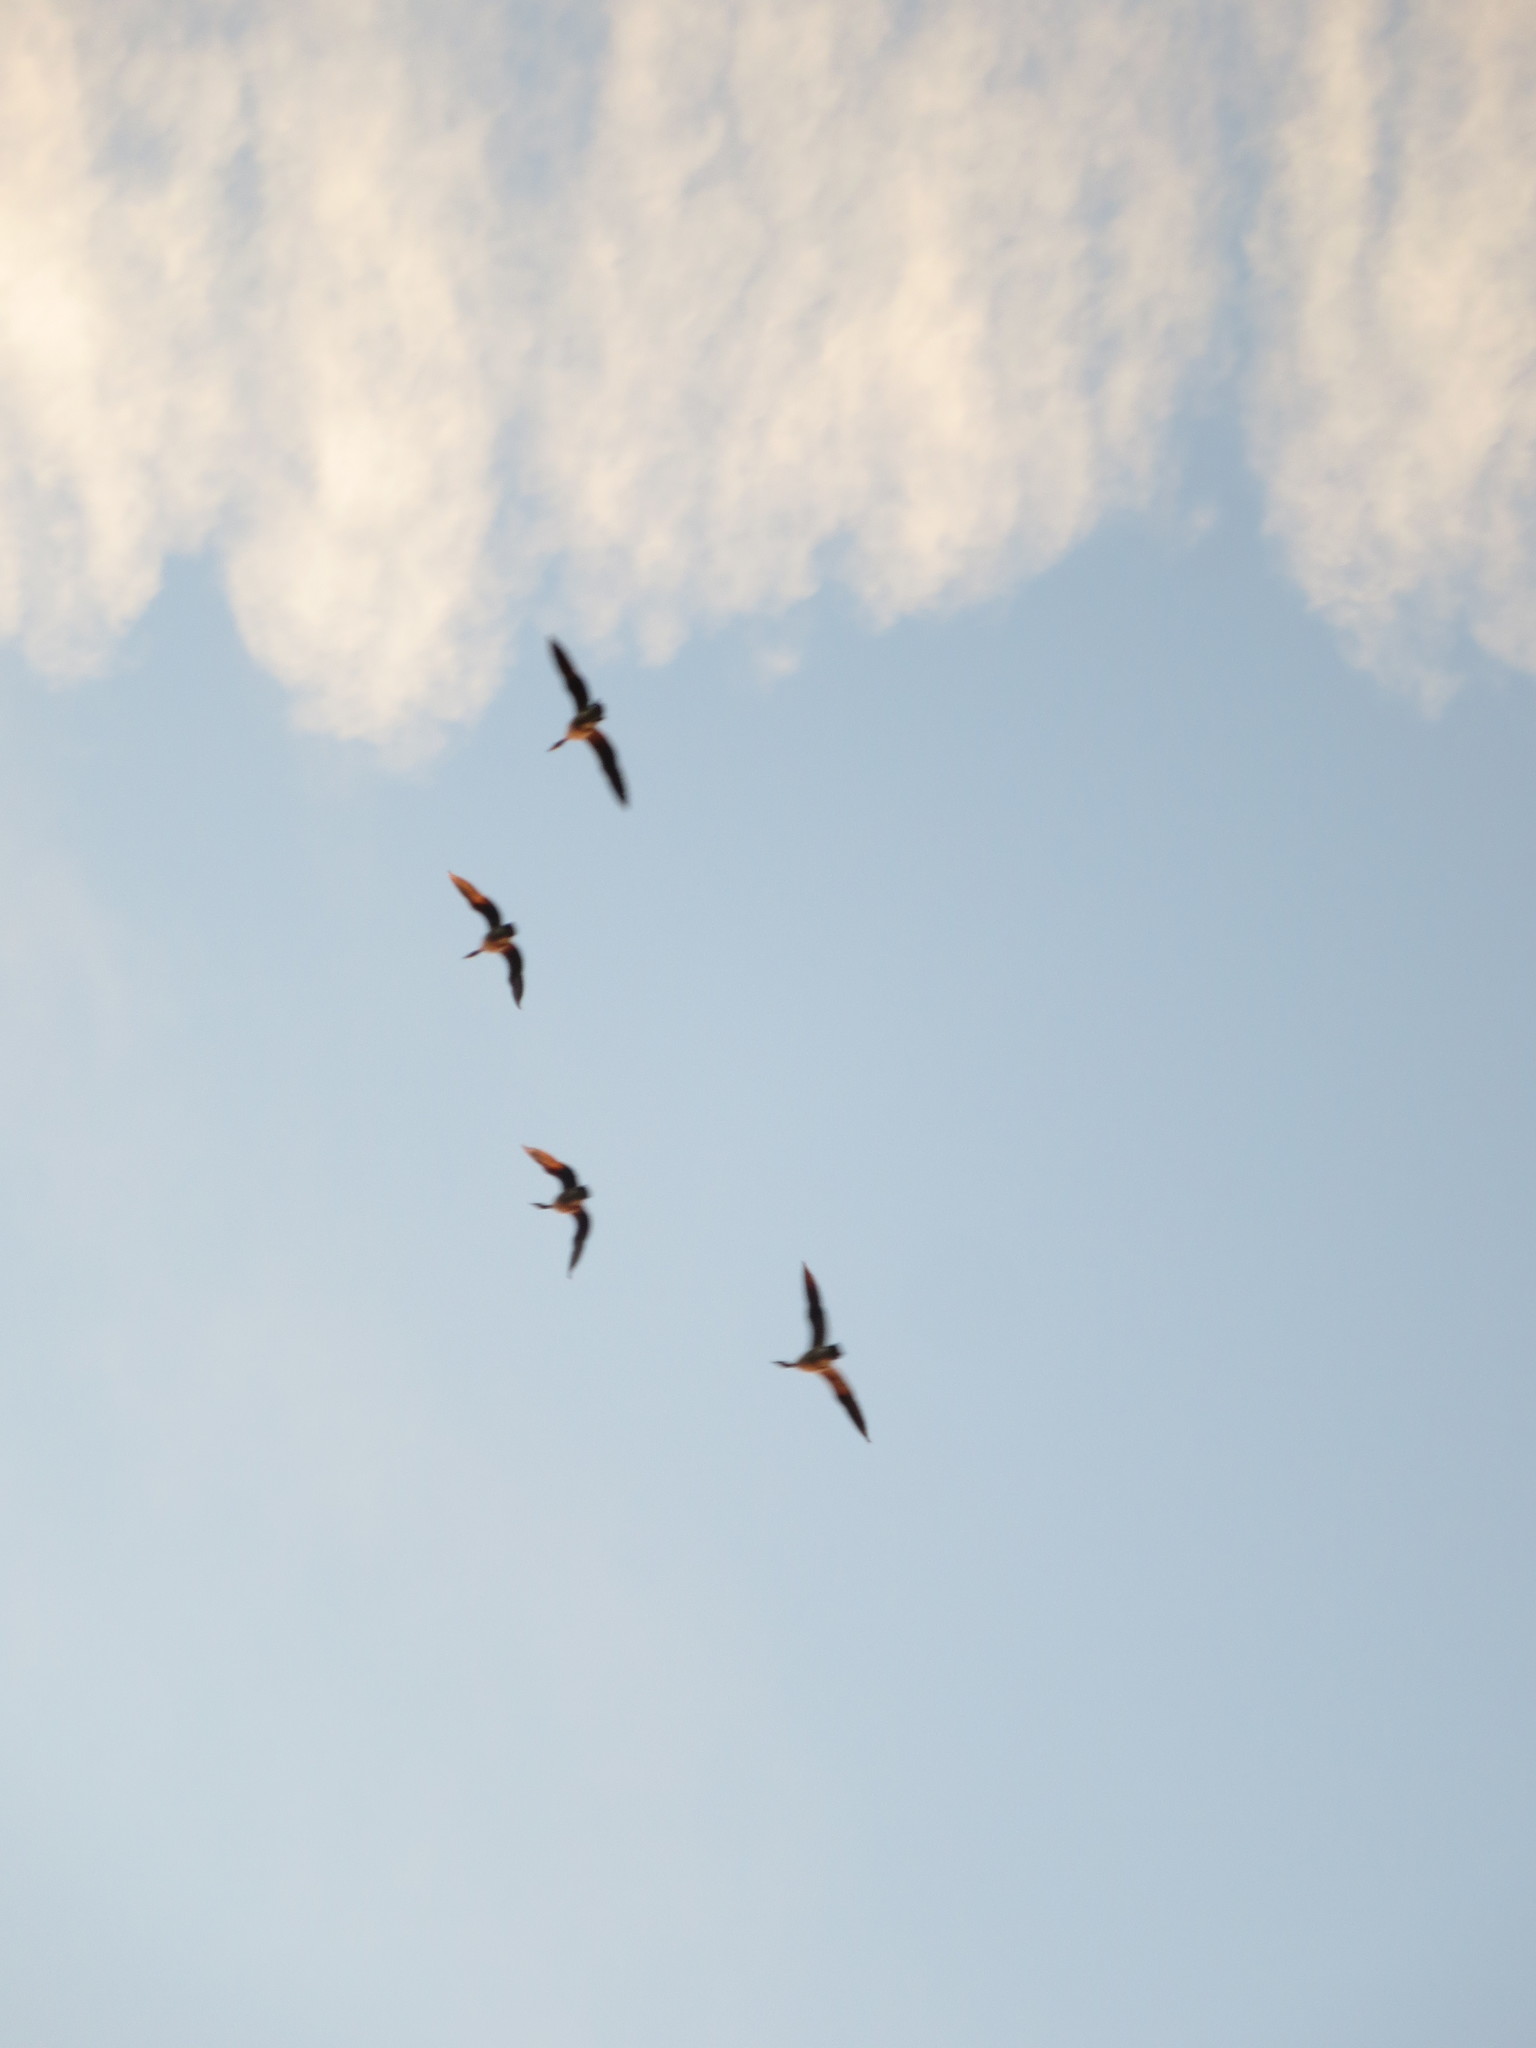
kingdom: Animalia
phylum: Chordata
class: Aves
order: Anseriformes
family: Anatidae
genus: Branta
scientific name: Branta canadensis
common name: Canada goose
